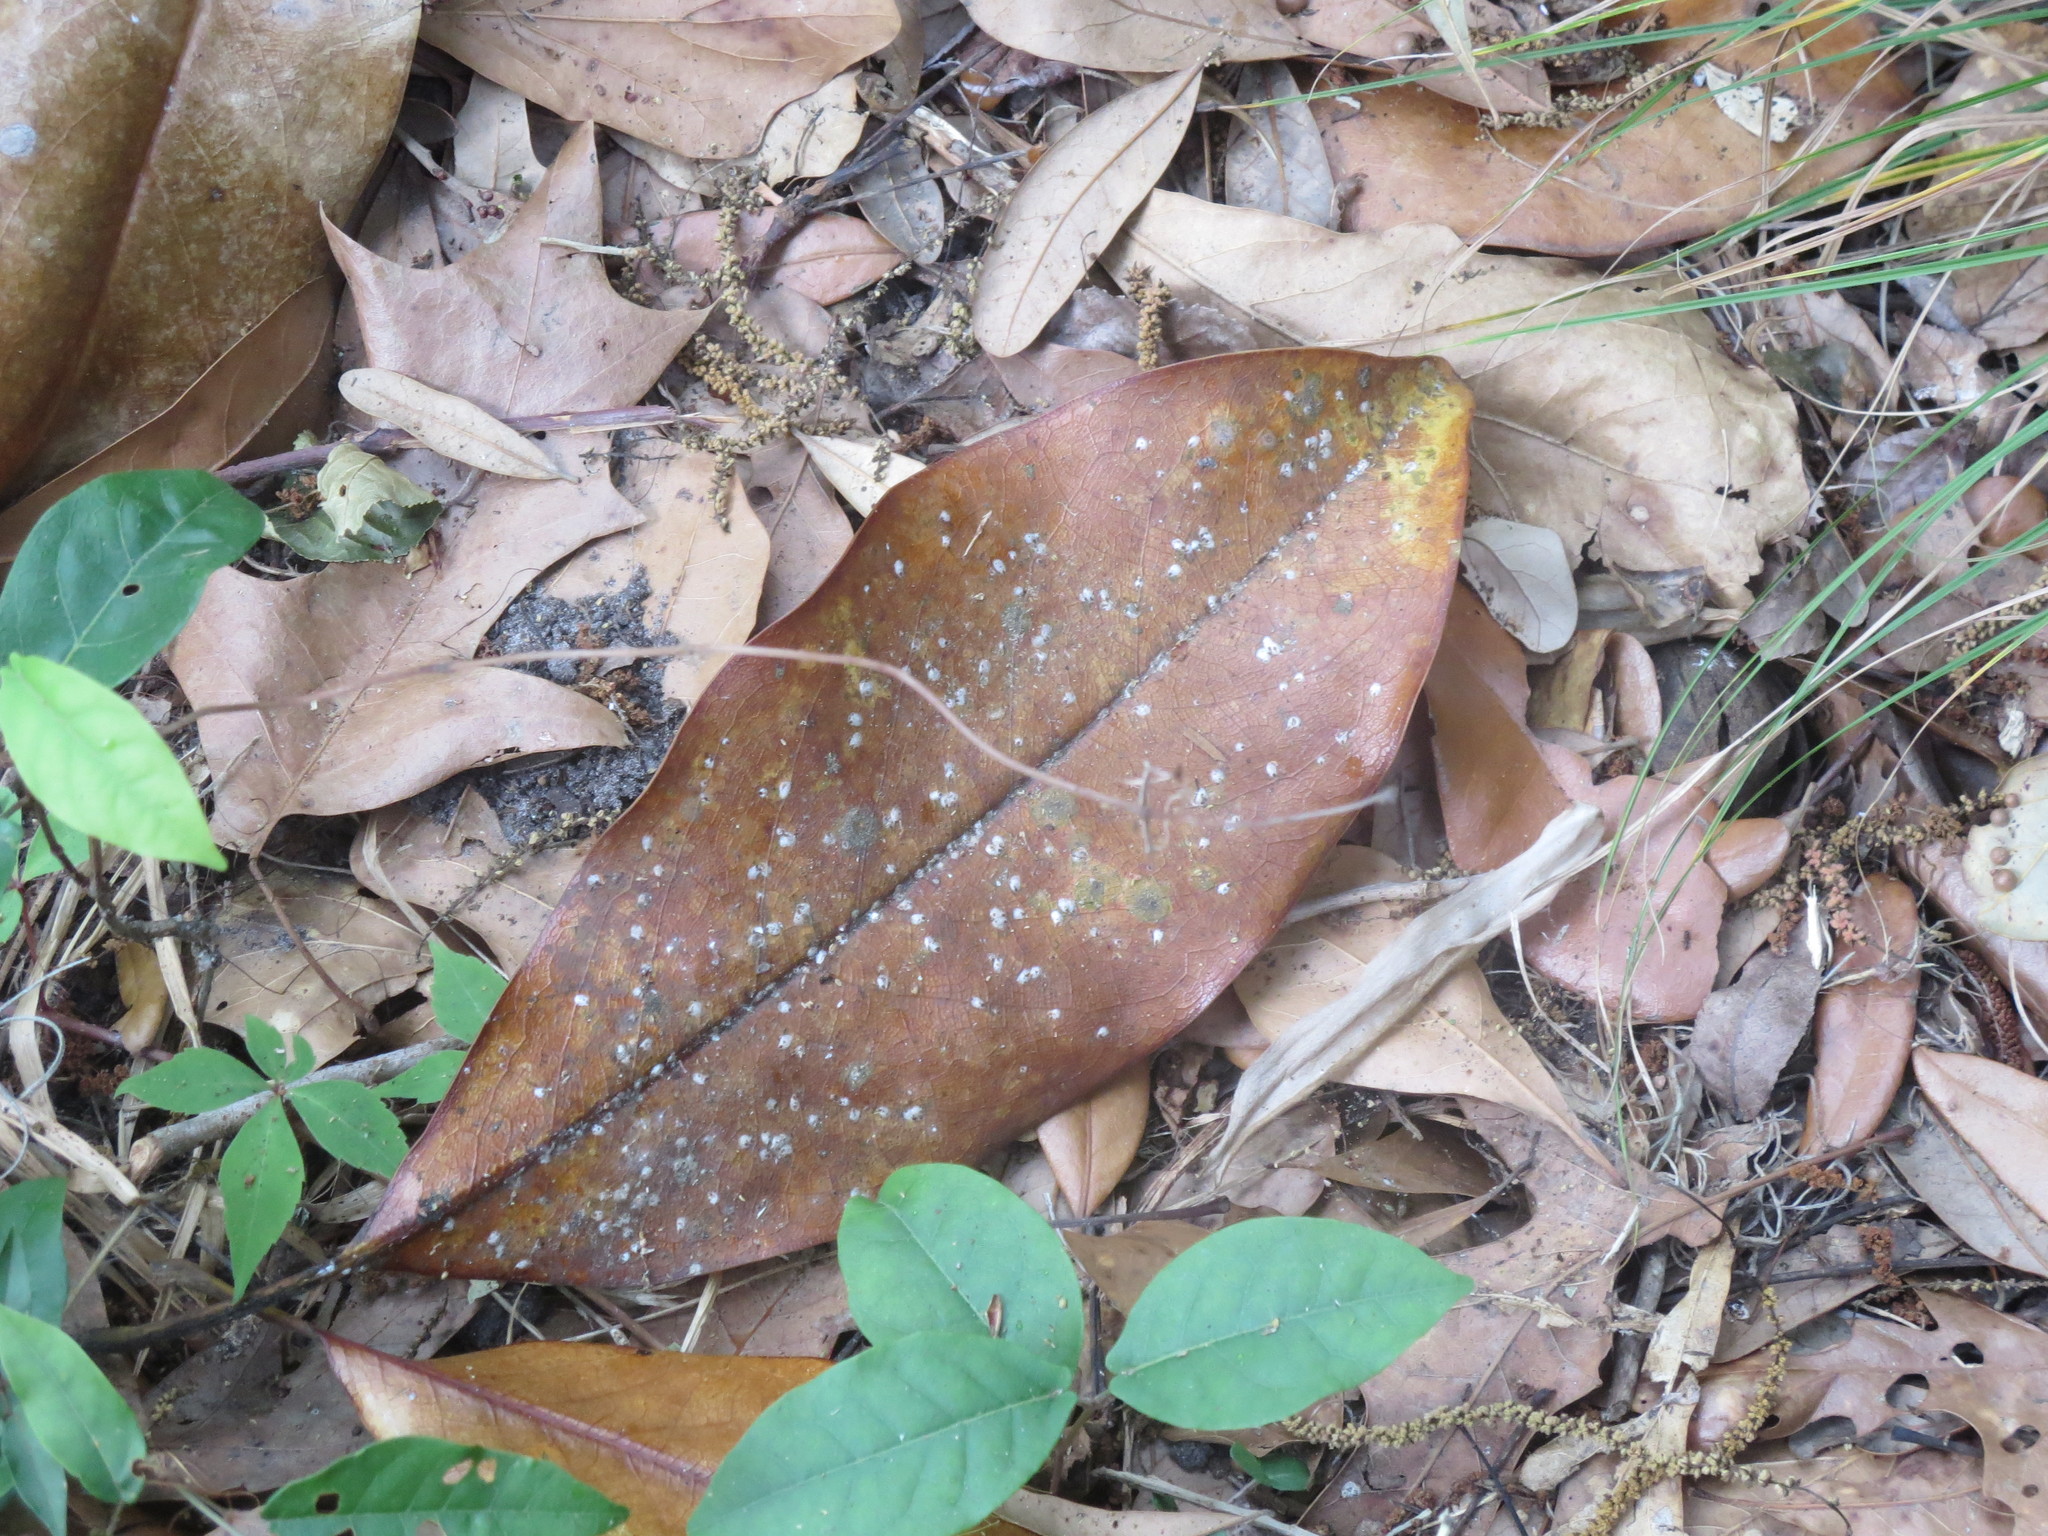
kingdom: Plantae
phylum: Tracheophyta
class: Magnoliopsida
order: Magnoliales
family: Magnoliaceae
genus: Magnolia
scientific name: Magnolia grandiflora
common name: Southern magnolia
